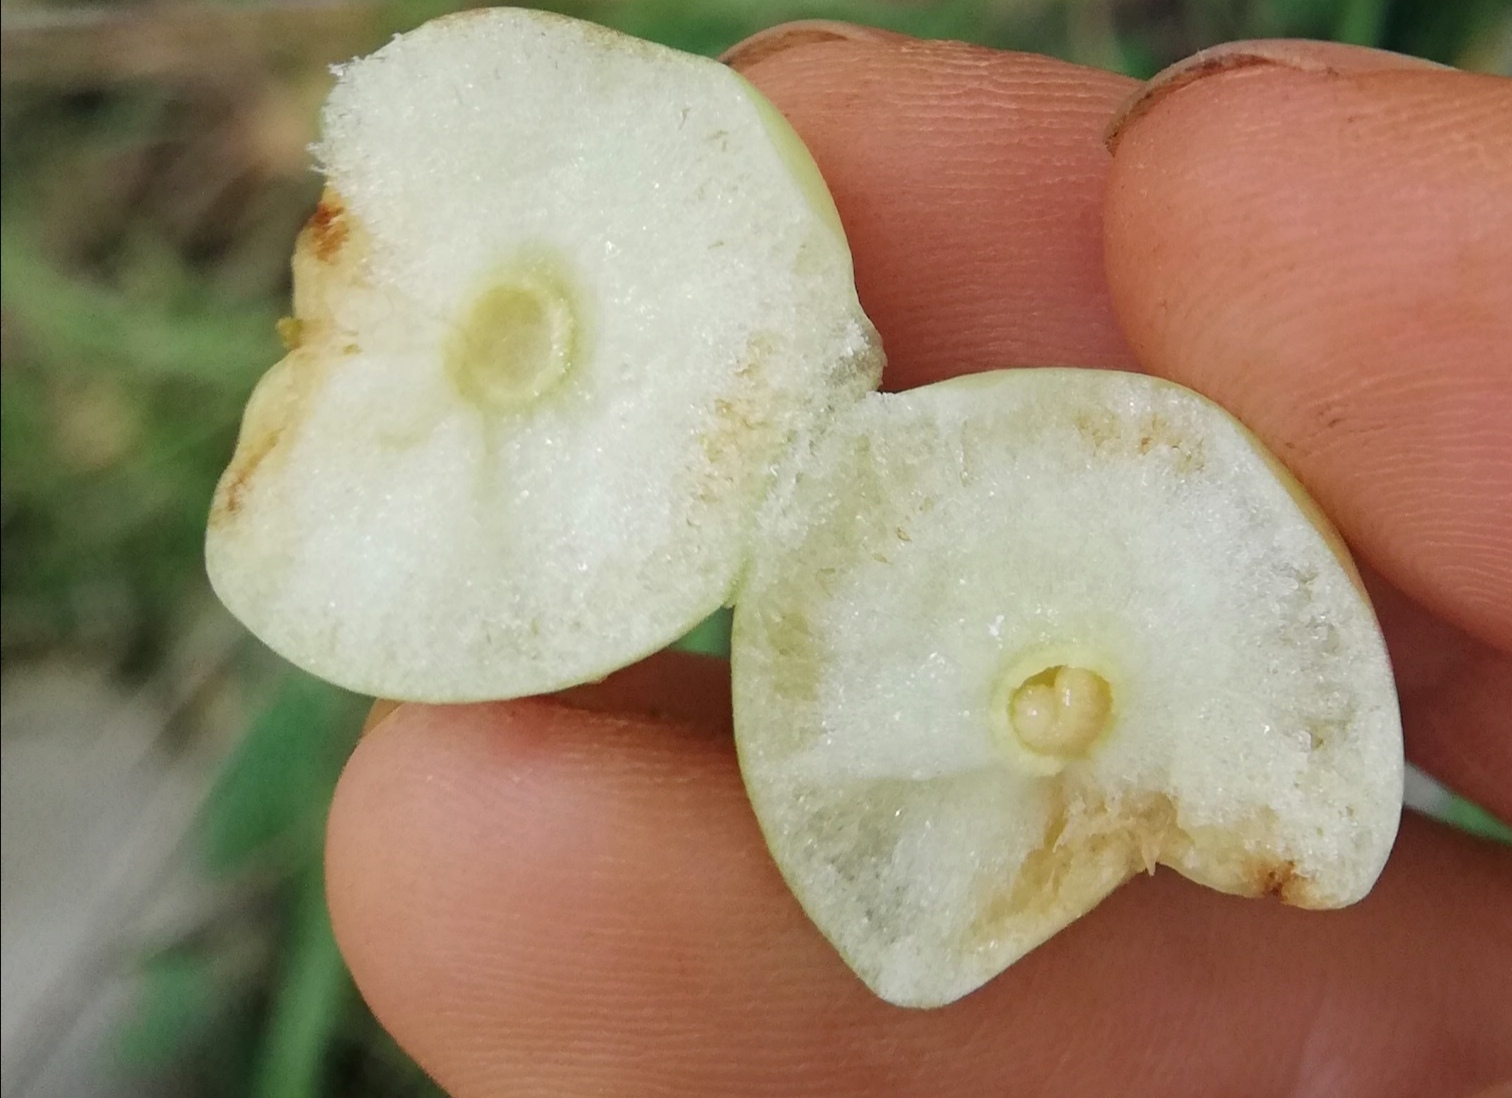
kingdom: Animalia
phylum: Arthropoda
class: Insecta
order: Hymenoptera
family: Cynipidae
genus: Cynips
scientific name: Cynips quercusfolii
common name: Cherry gall
